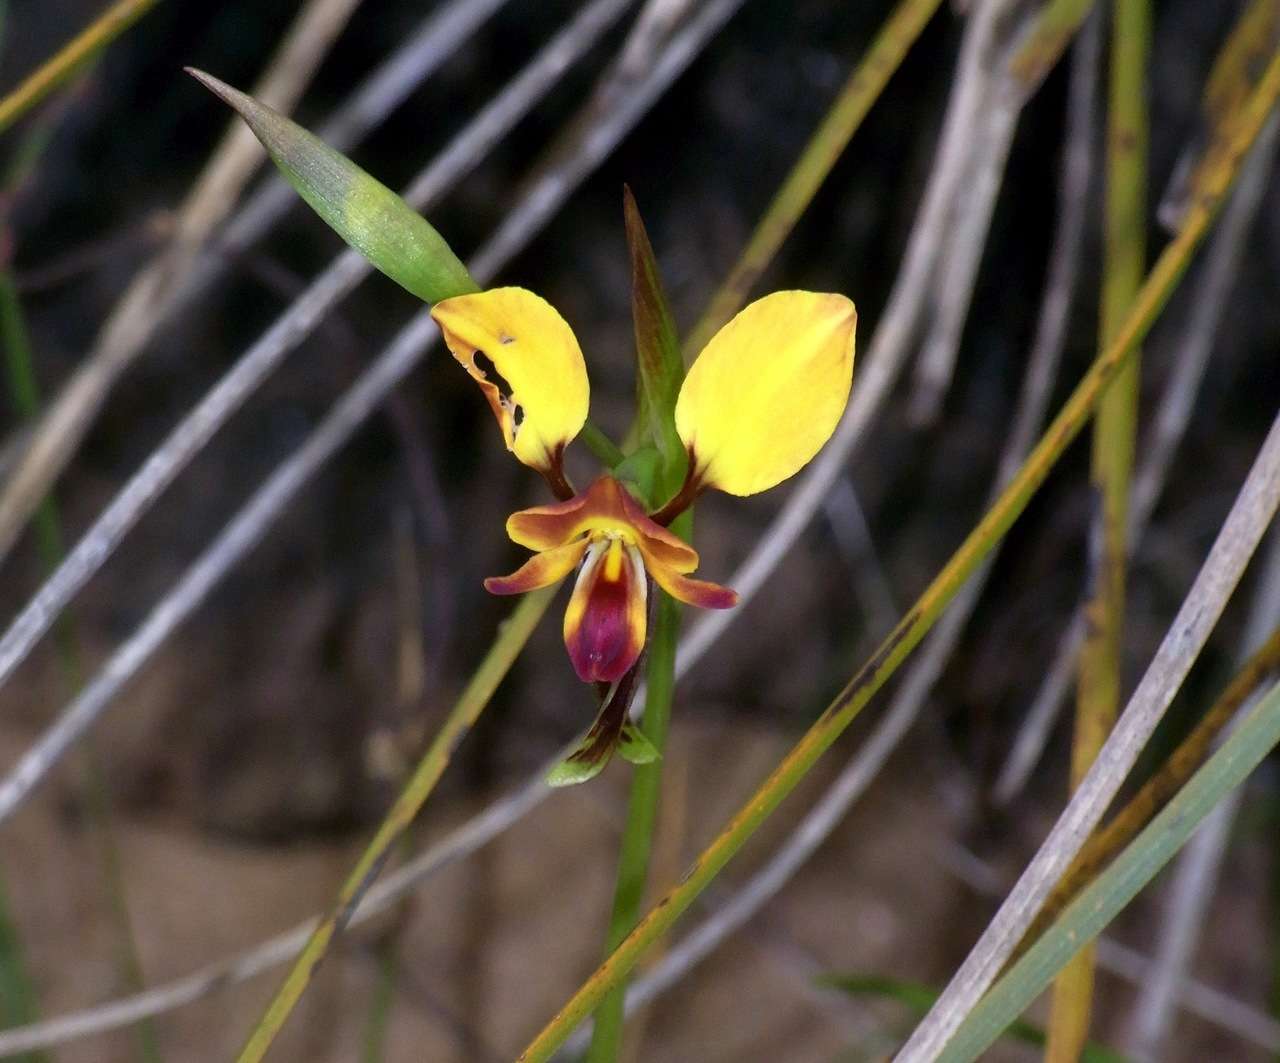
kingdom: Plantae
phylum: Tracheophyta
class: Liliopsida
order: Asparagales
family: Orchidaceae
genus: Diuris
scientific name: Diuris orientis
